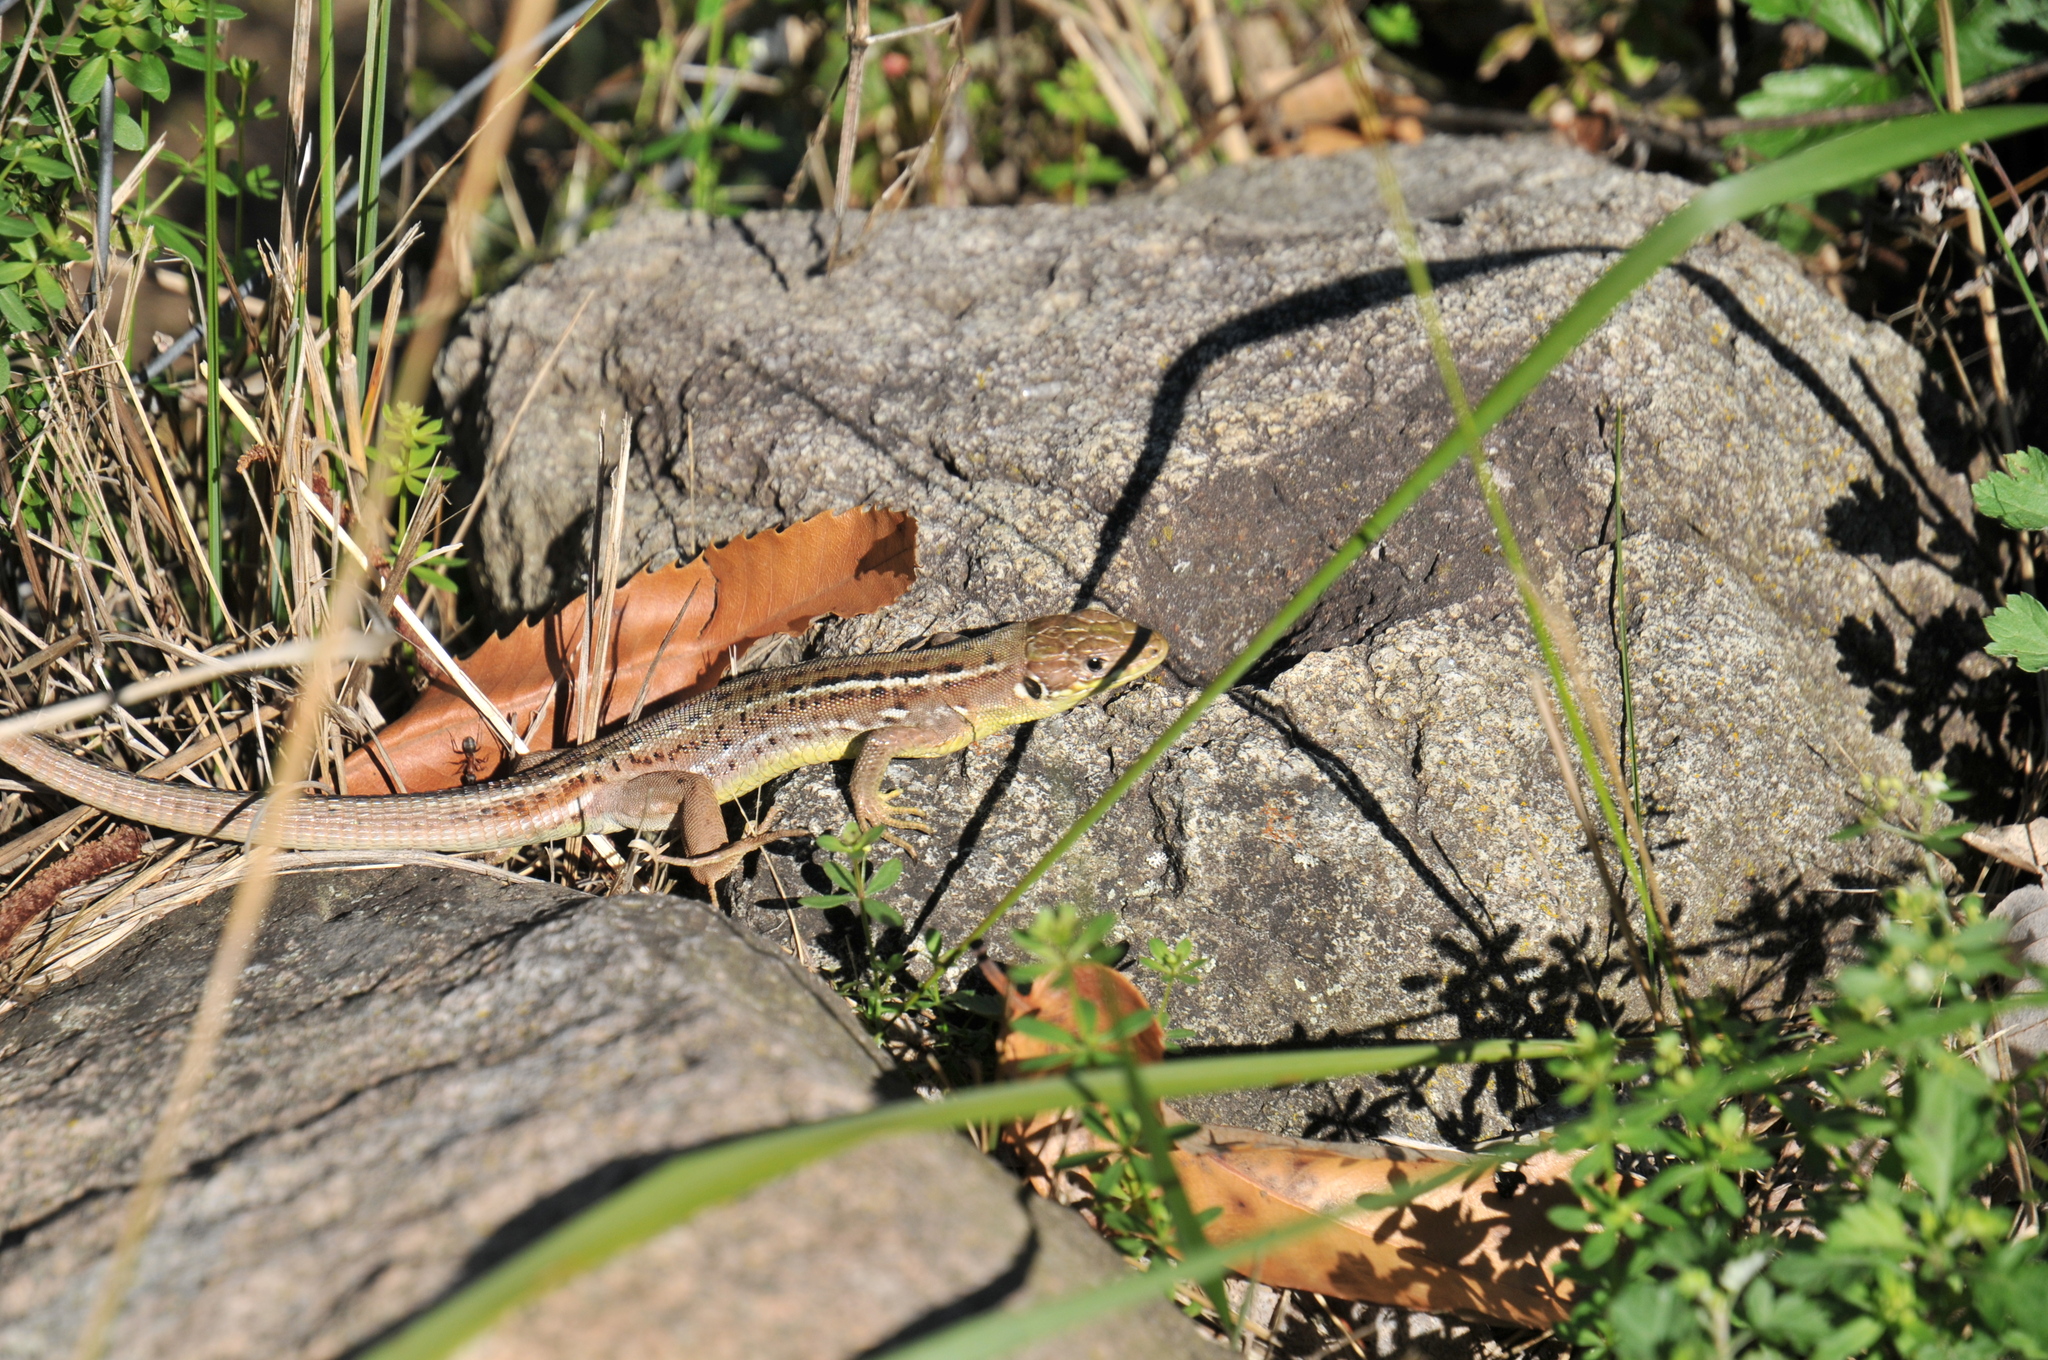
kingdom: Animalia
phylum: Chordata
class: Squamata
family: Lacertidae
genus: Lacerta
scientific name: Lacerta bilineata
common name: Western green lizard
